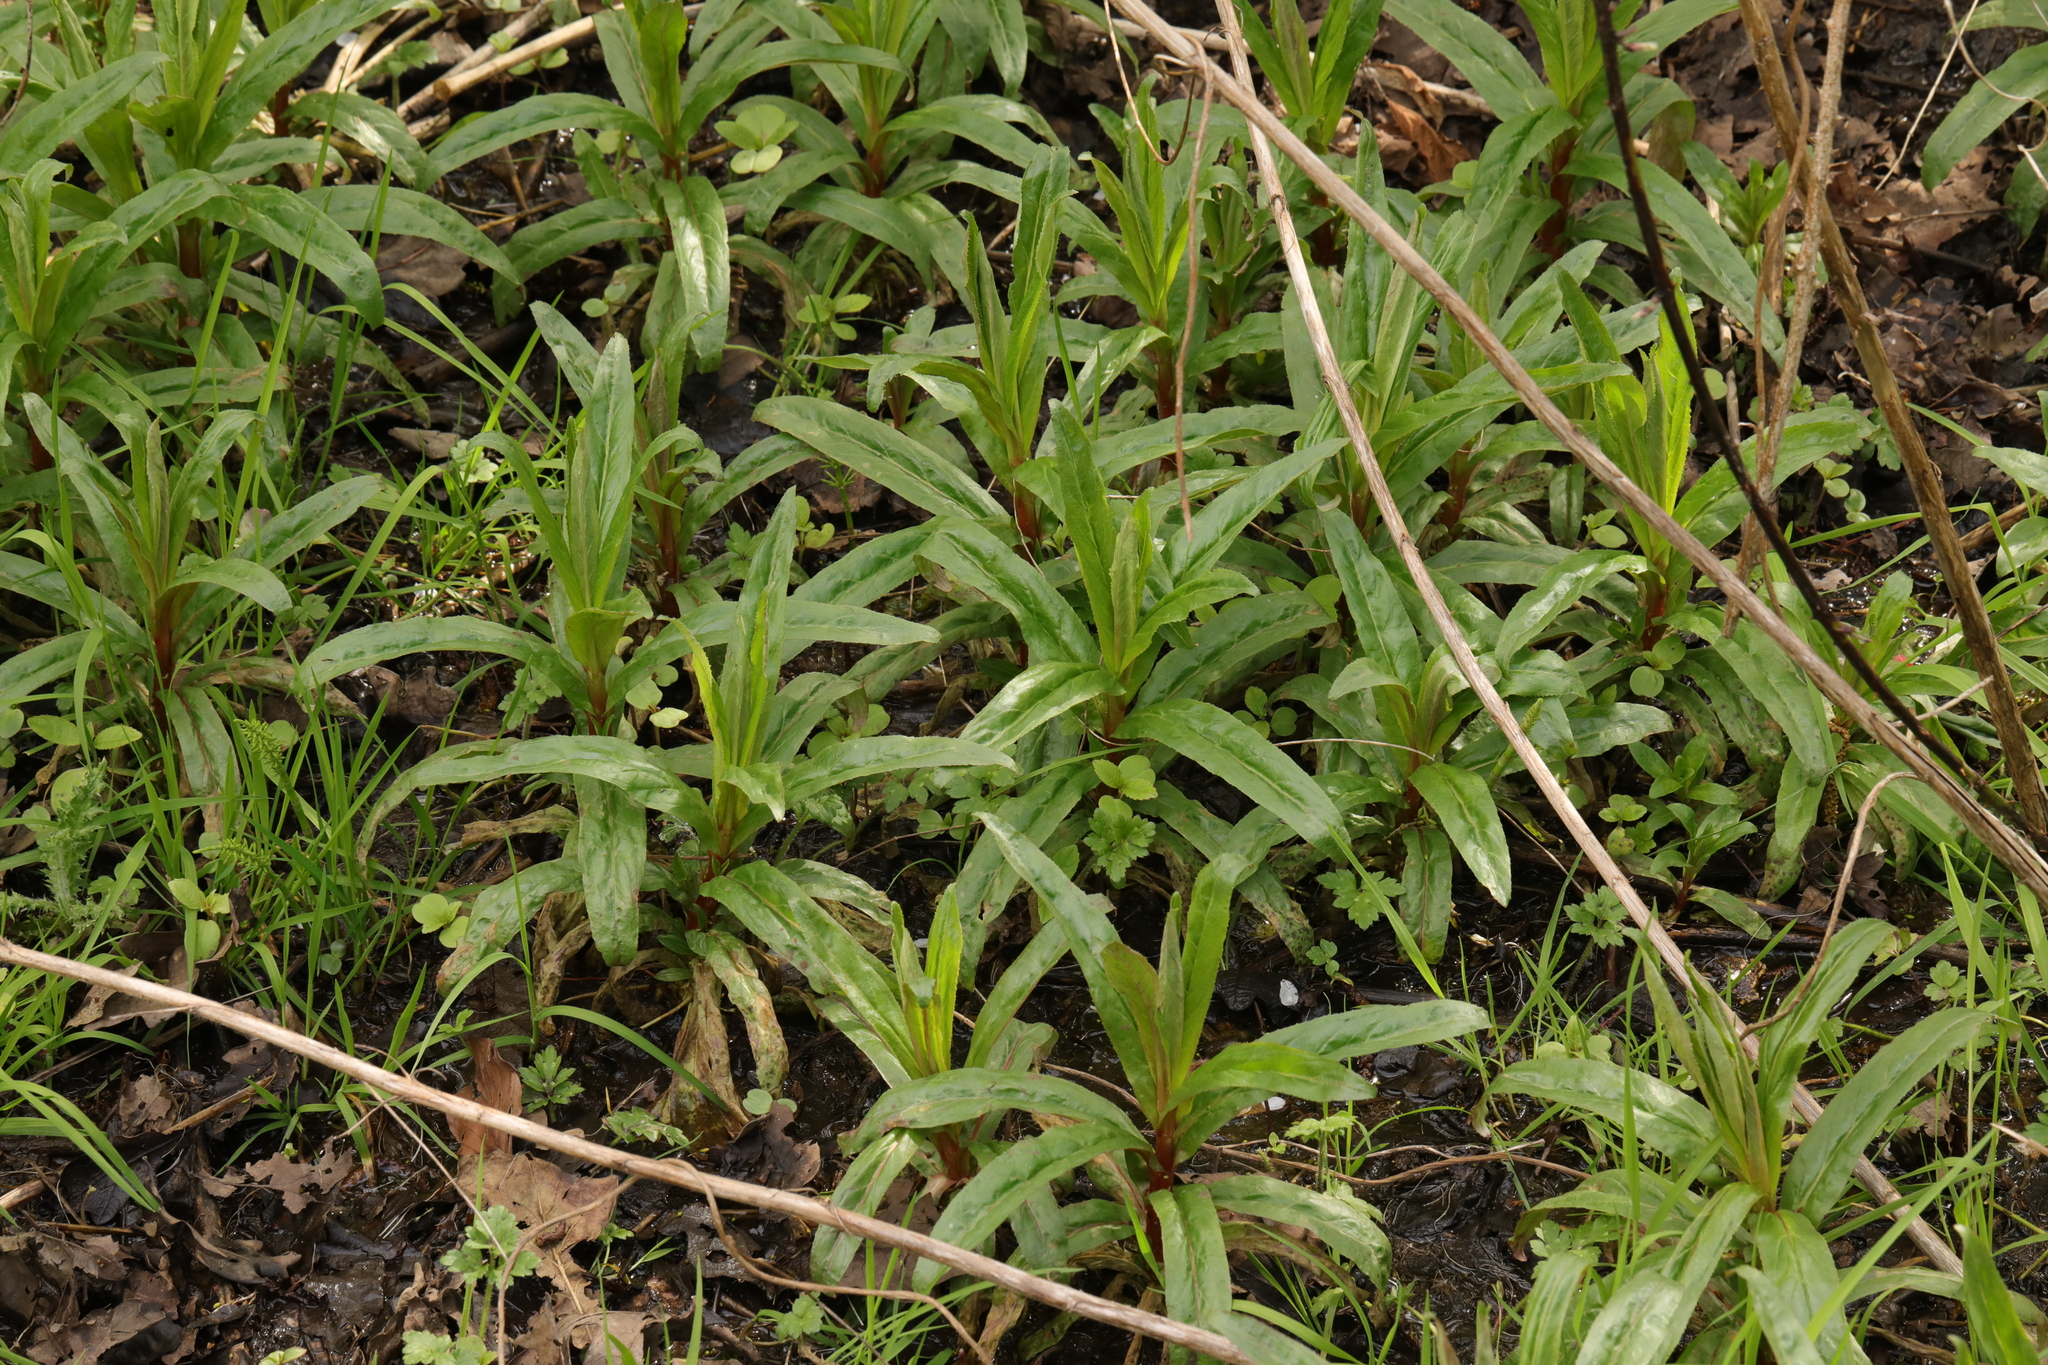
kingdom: Plantae
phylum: Tracheophyta
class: Magnoliopsida
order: Myrtales
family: Onagraceae
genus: Chamaenerion
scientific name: Chamaenerion angustifolium
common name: Fireweed
